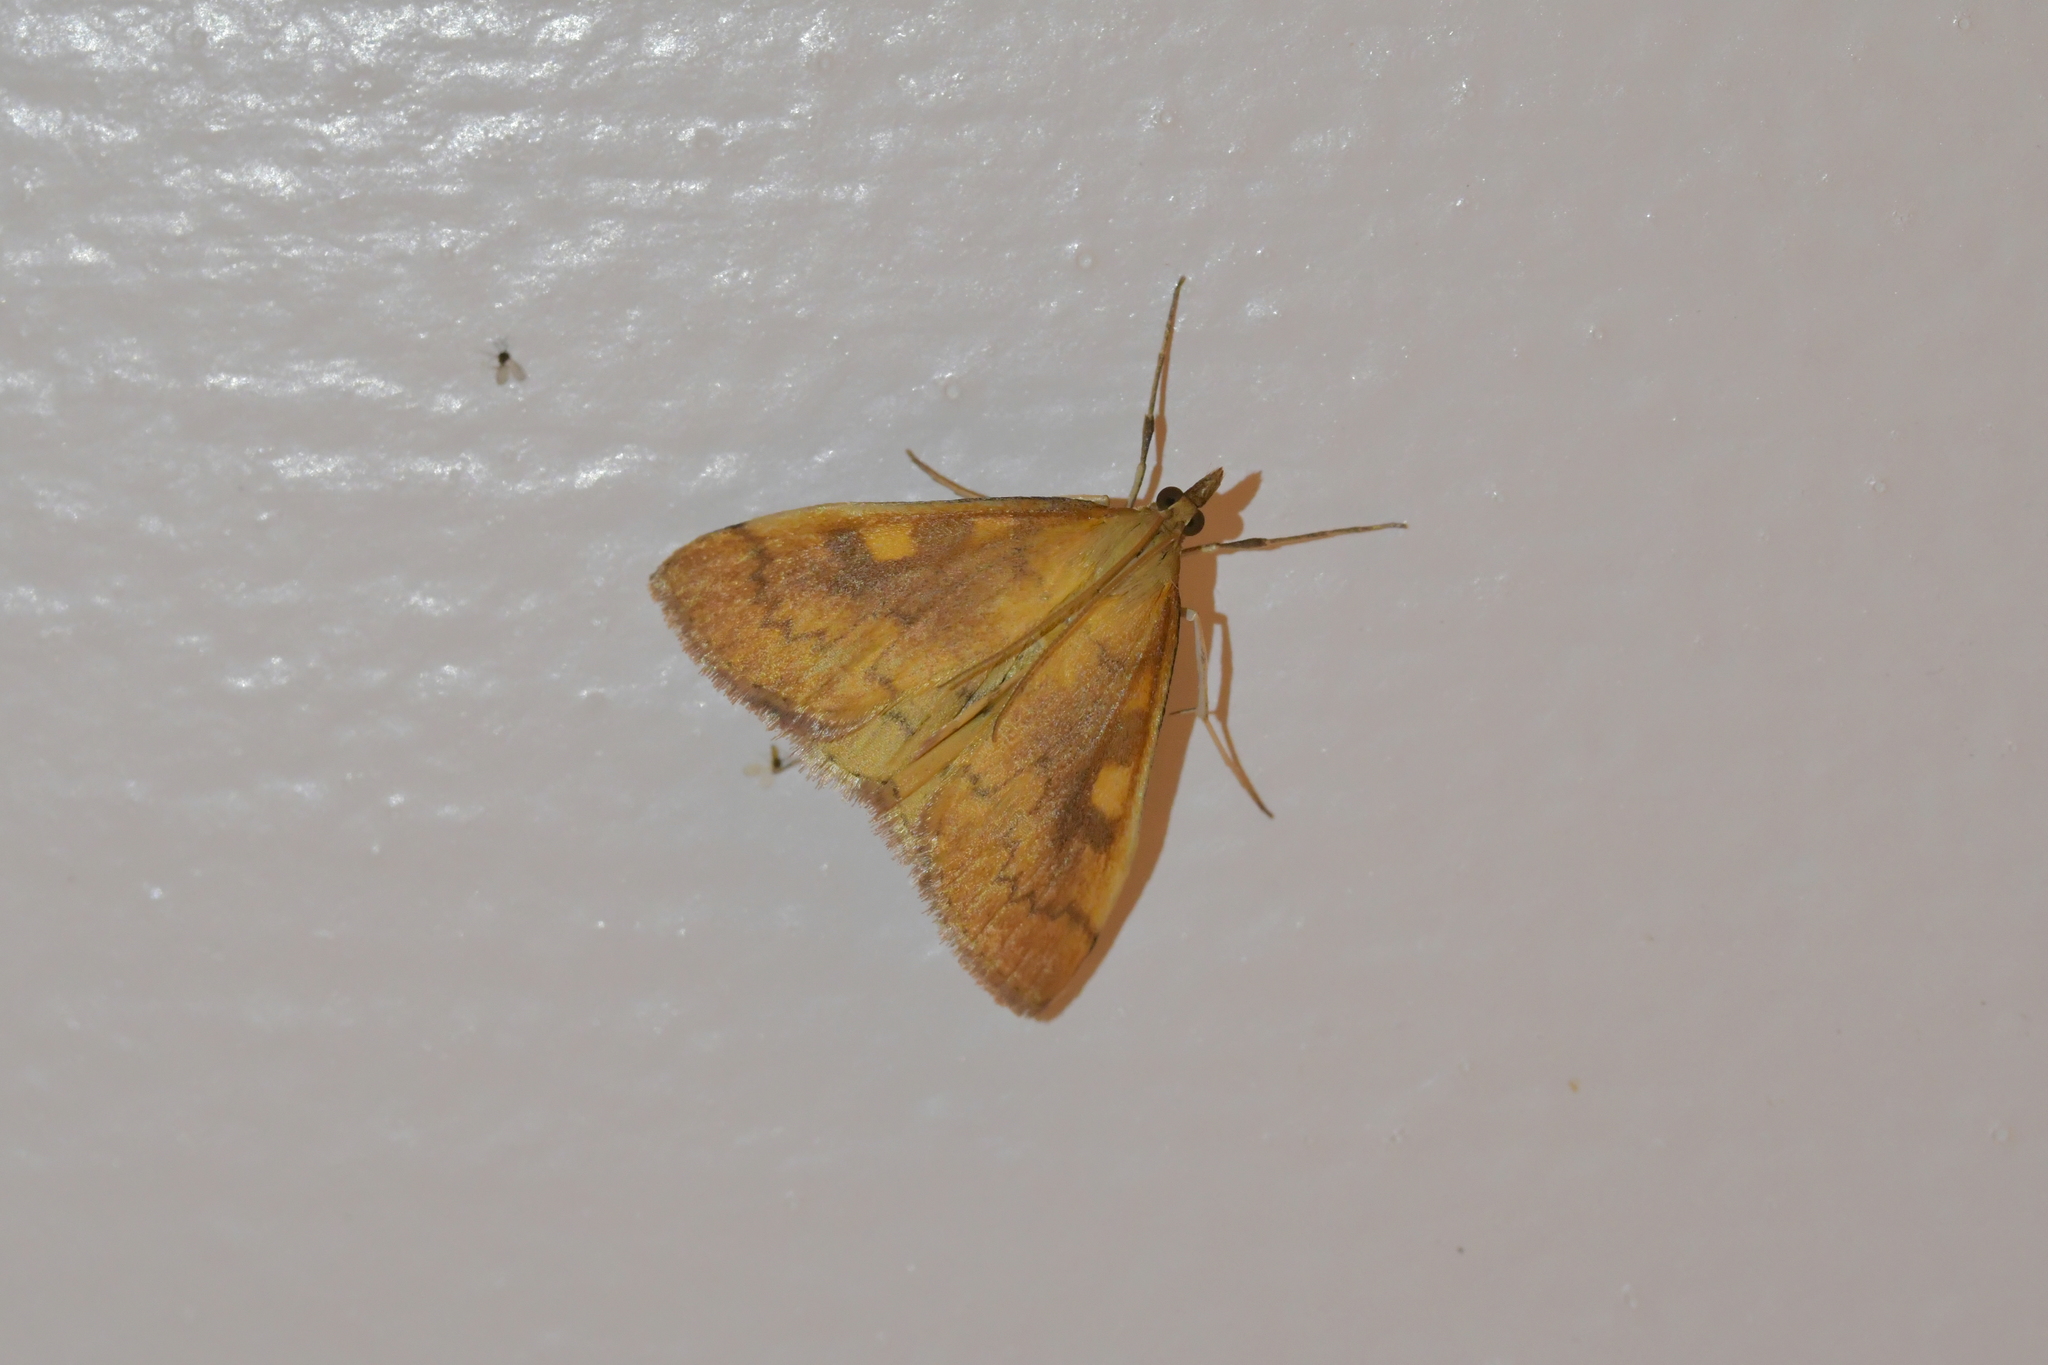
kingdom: Animalia
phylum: Arthropoda
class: Insecta
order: Lepidoptera
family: Crambidae
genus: Udea
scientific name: Udea Mnesictena flavidalis
